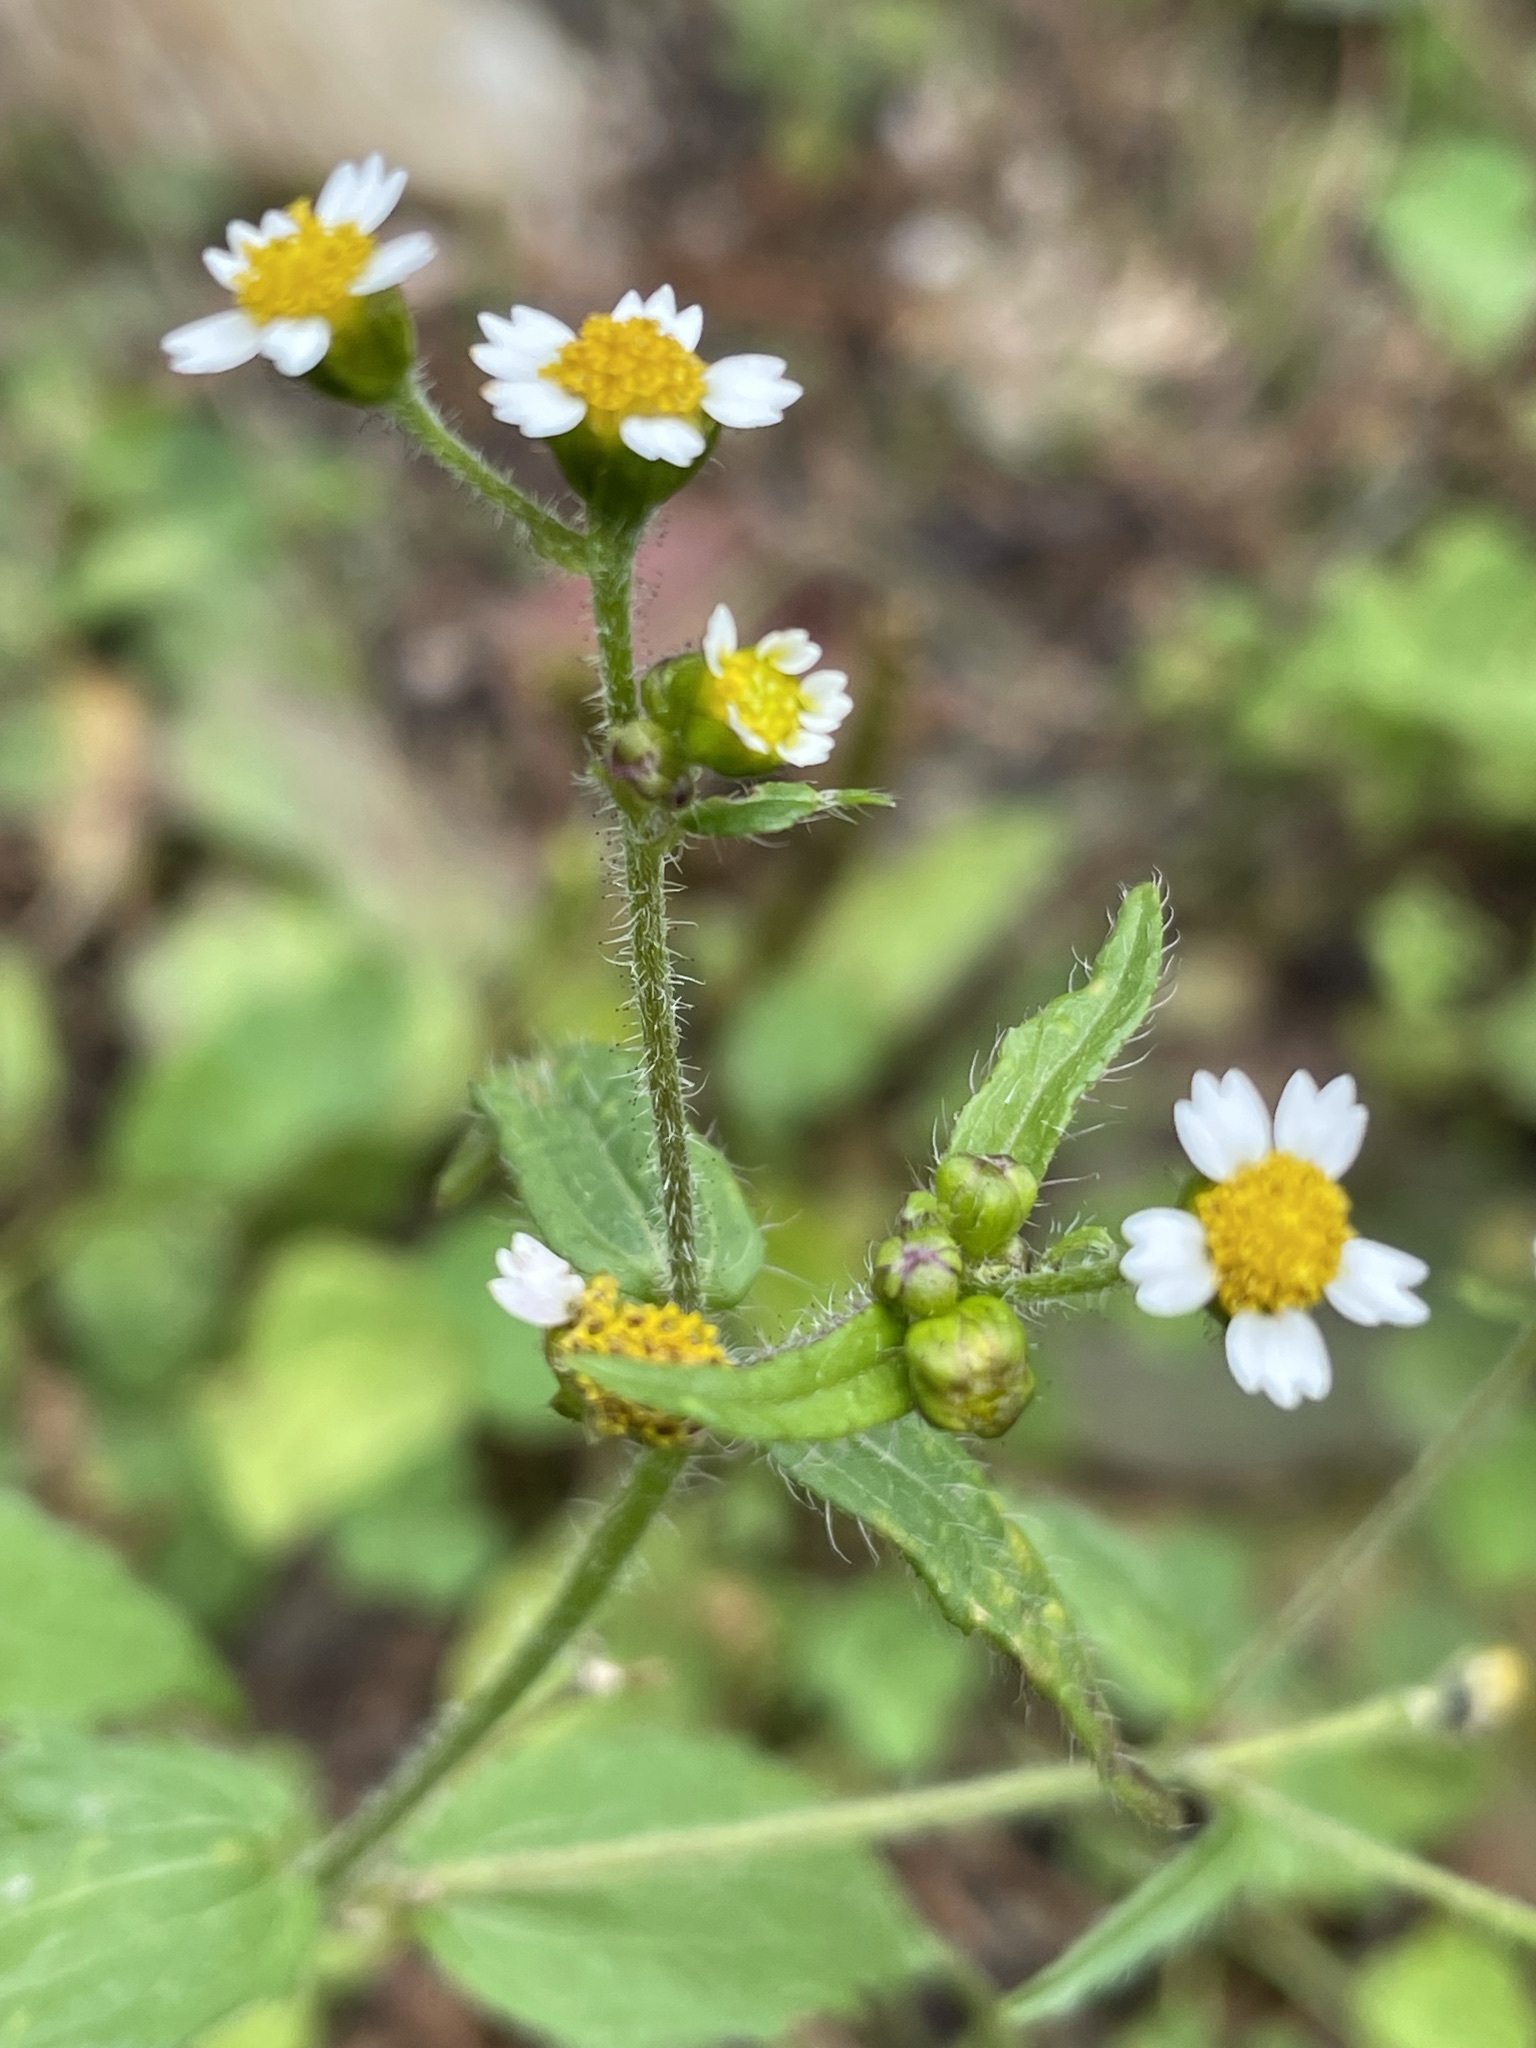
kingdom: Plantae
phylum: Tracheophyta
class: Magnoliopsida
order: Asterales
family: Asteraceae
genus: Galinsoga
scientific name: Galinsoga quadriradiata
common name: Shaggy soldier
